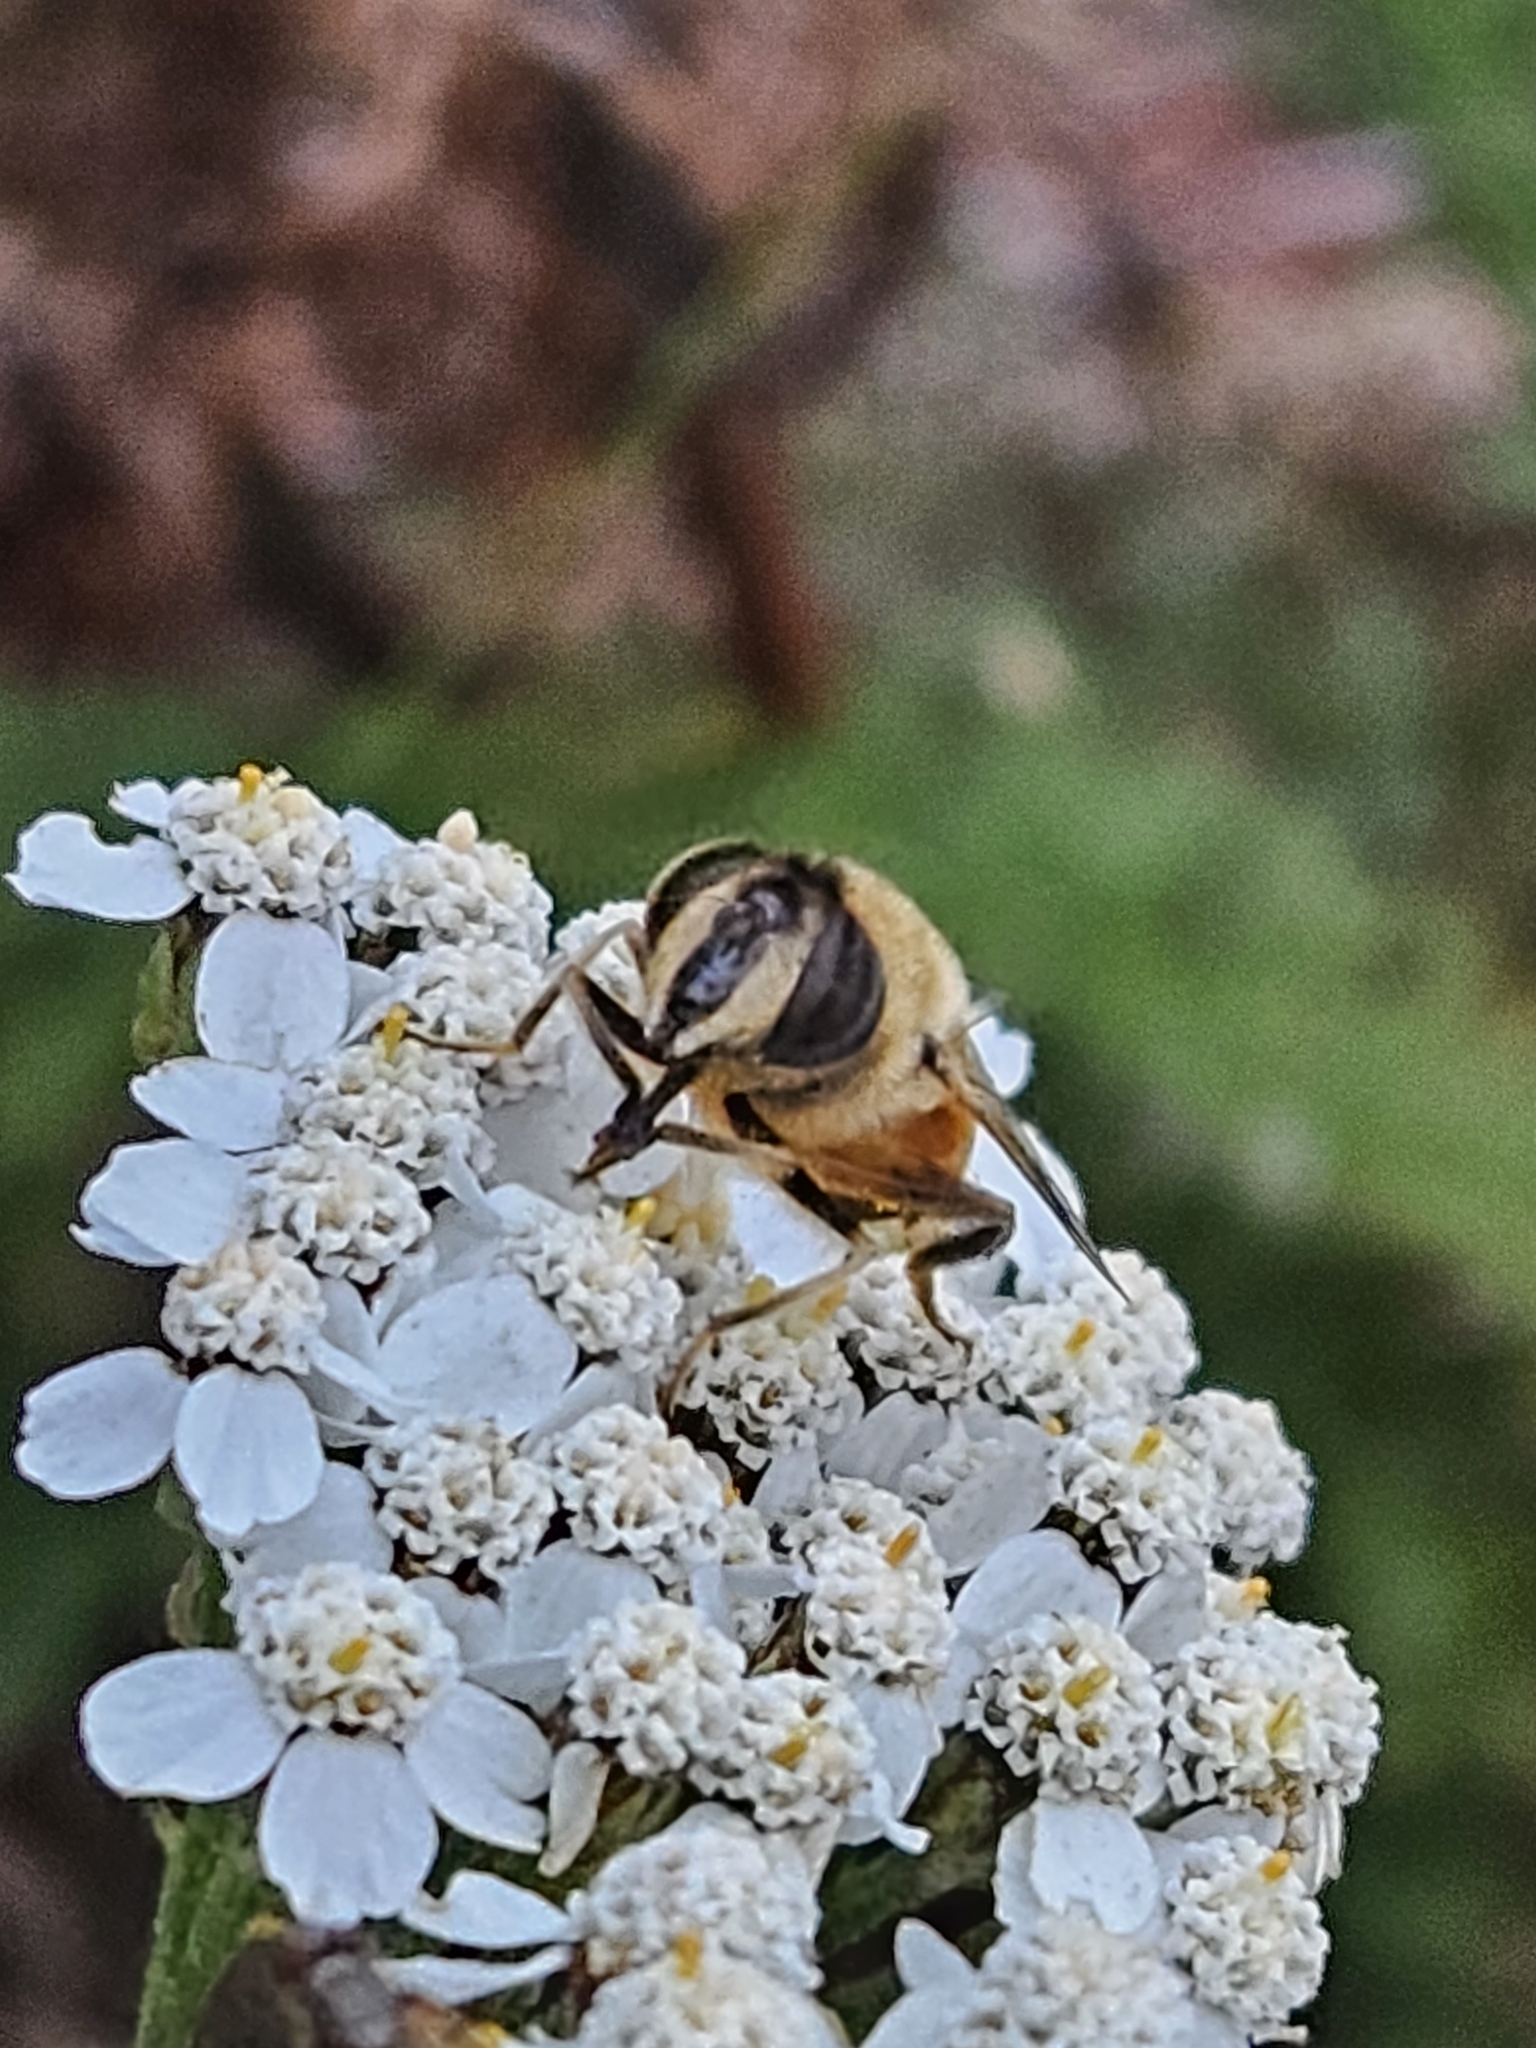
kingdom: Animalia
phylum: Arthropoda
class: Insecta
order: Diptera
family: Syrphidae
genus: Eristalis
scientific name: Eristalis tenax
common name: Drone fly
